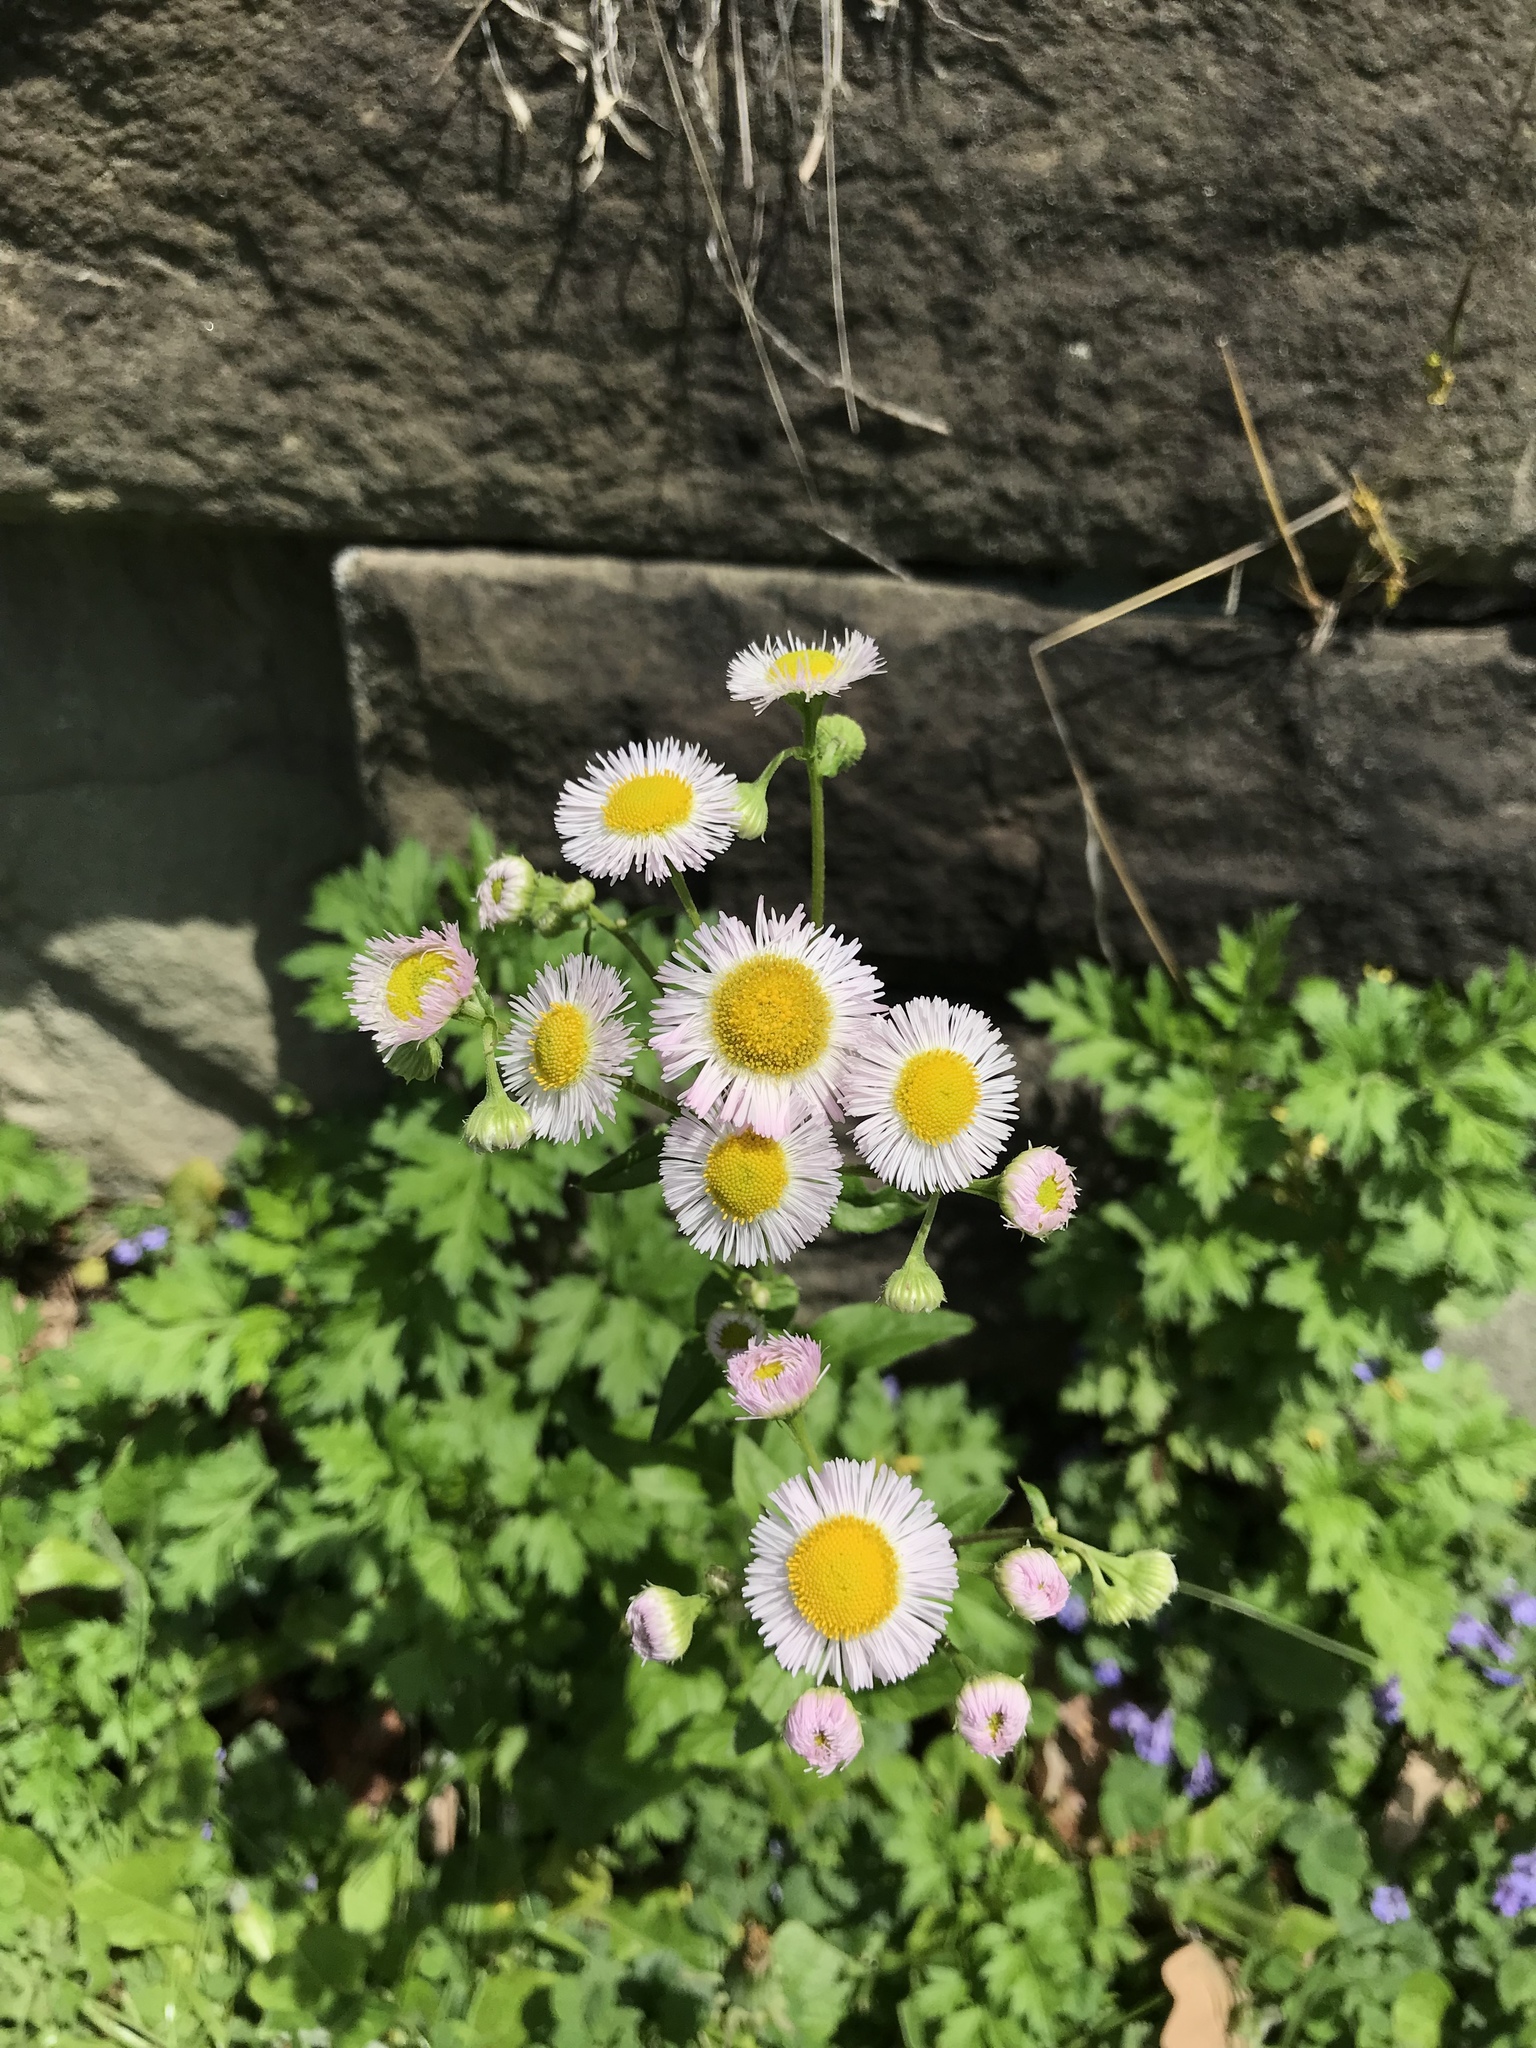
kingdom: Plantae
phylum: Tracheophyta
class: Magnoliopsida
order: Asterales
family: Asteraceae
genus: Erigeron
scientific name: Erigeron philadelphicus
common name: Robin's-plantain
